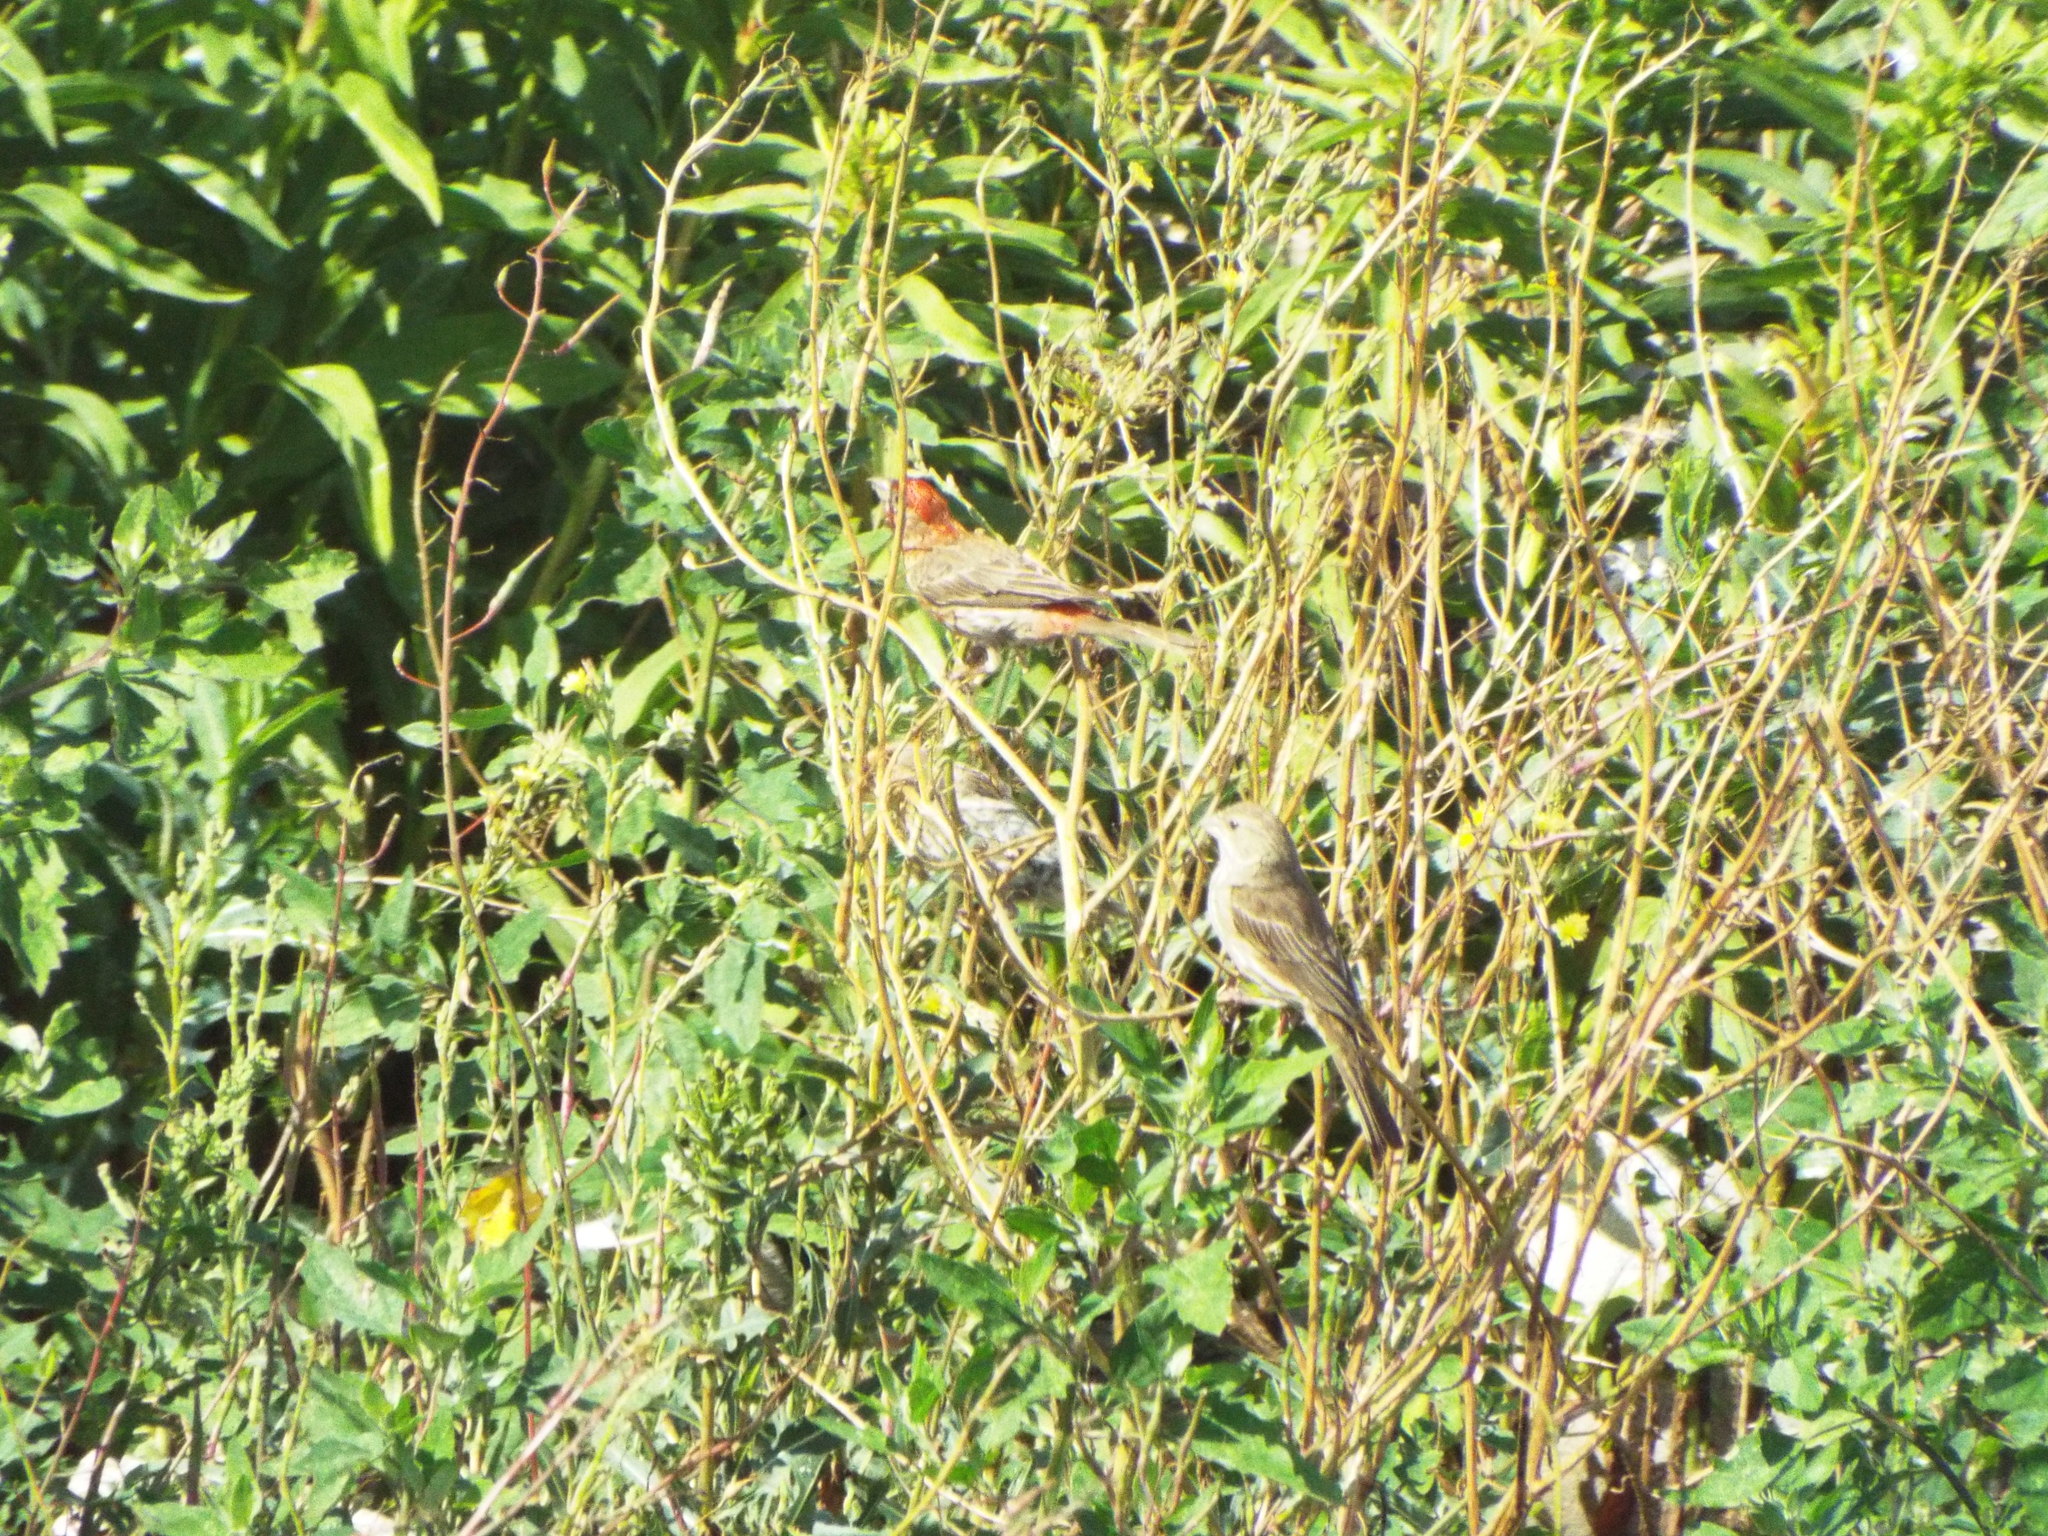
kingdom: Animalia
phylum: Chordata
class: Aves
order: Passeriformes
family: Fringillidae
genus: Haemorhous
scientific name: Haemorhous mexicanus
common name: House finch
